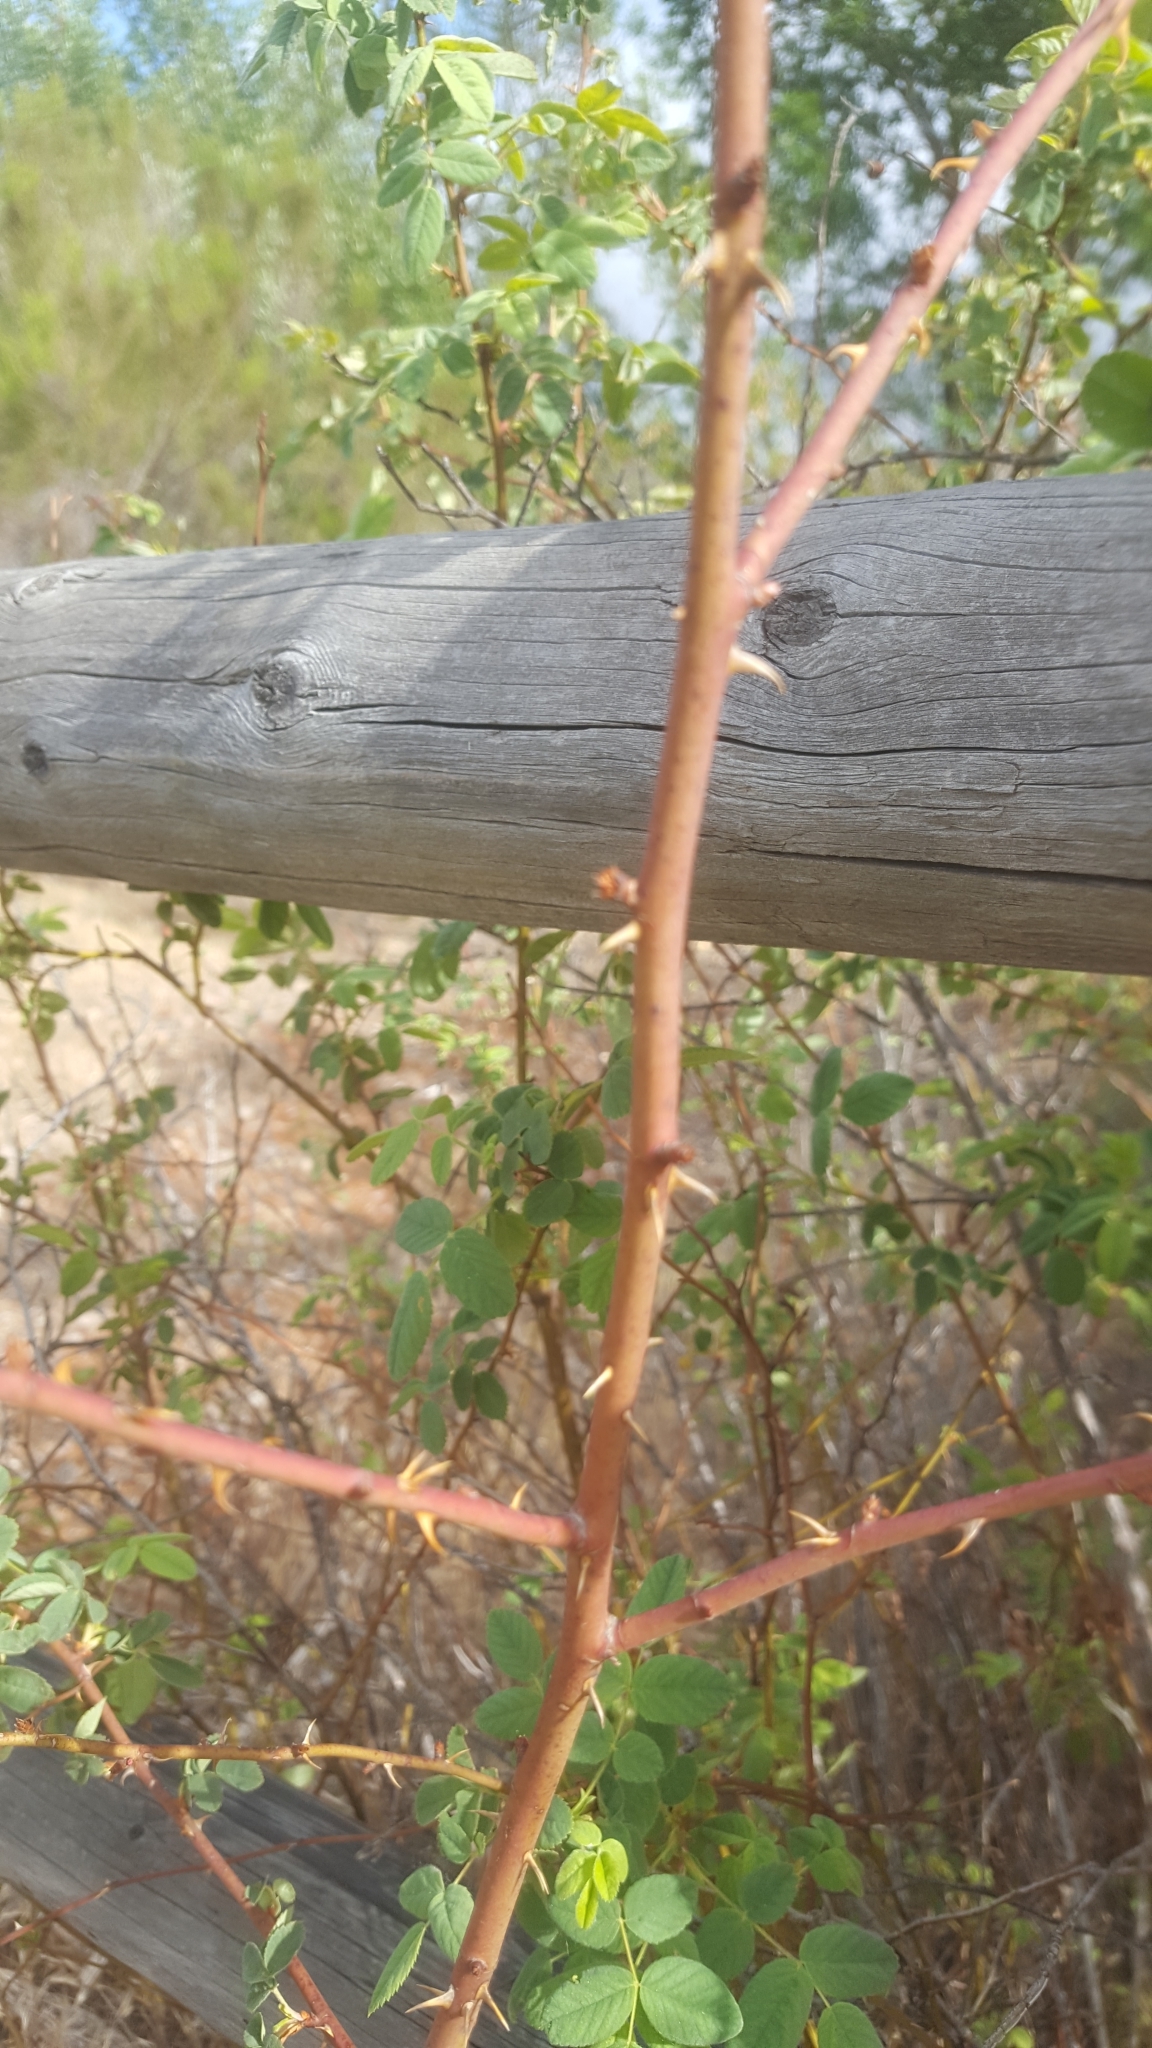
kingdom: Plantae
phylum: Tracheophyta
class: Magnoliopsida
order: Rosales
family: Rosaceae
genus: Rosa
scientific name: Rosa californica
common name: California rose
